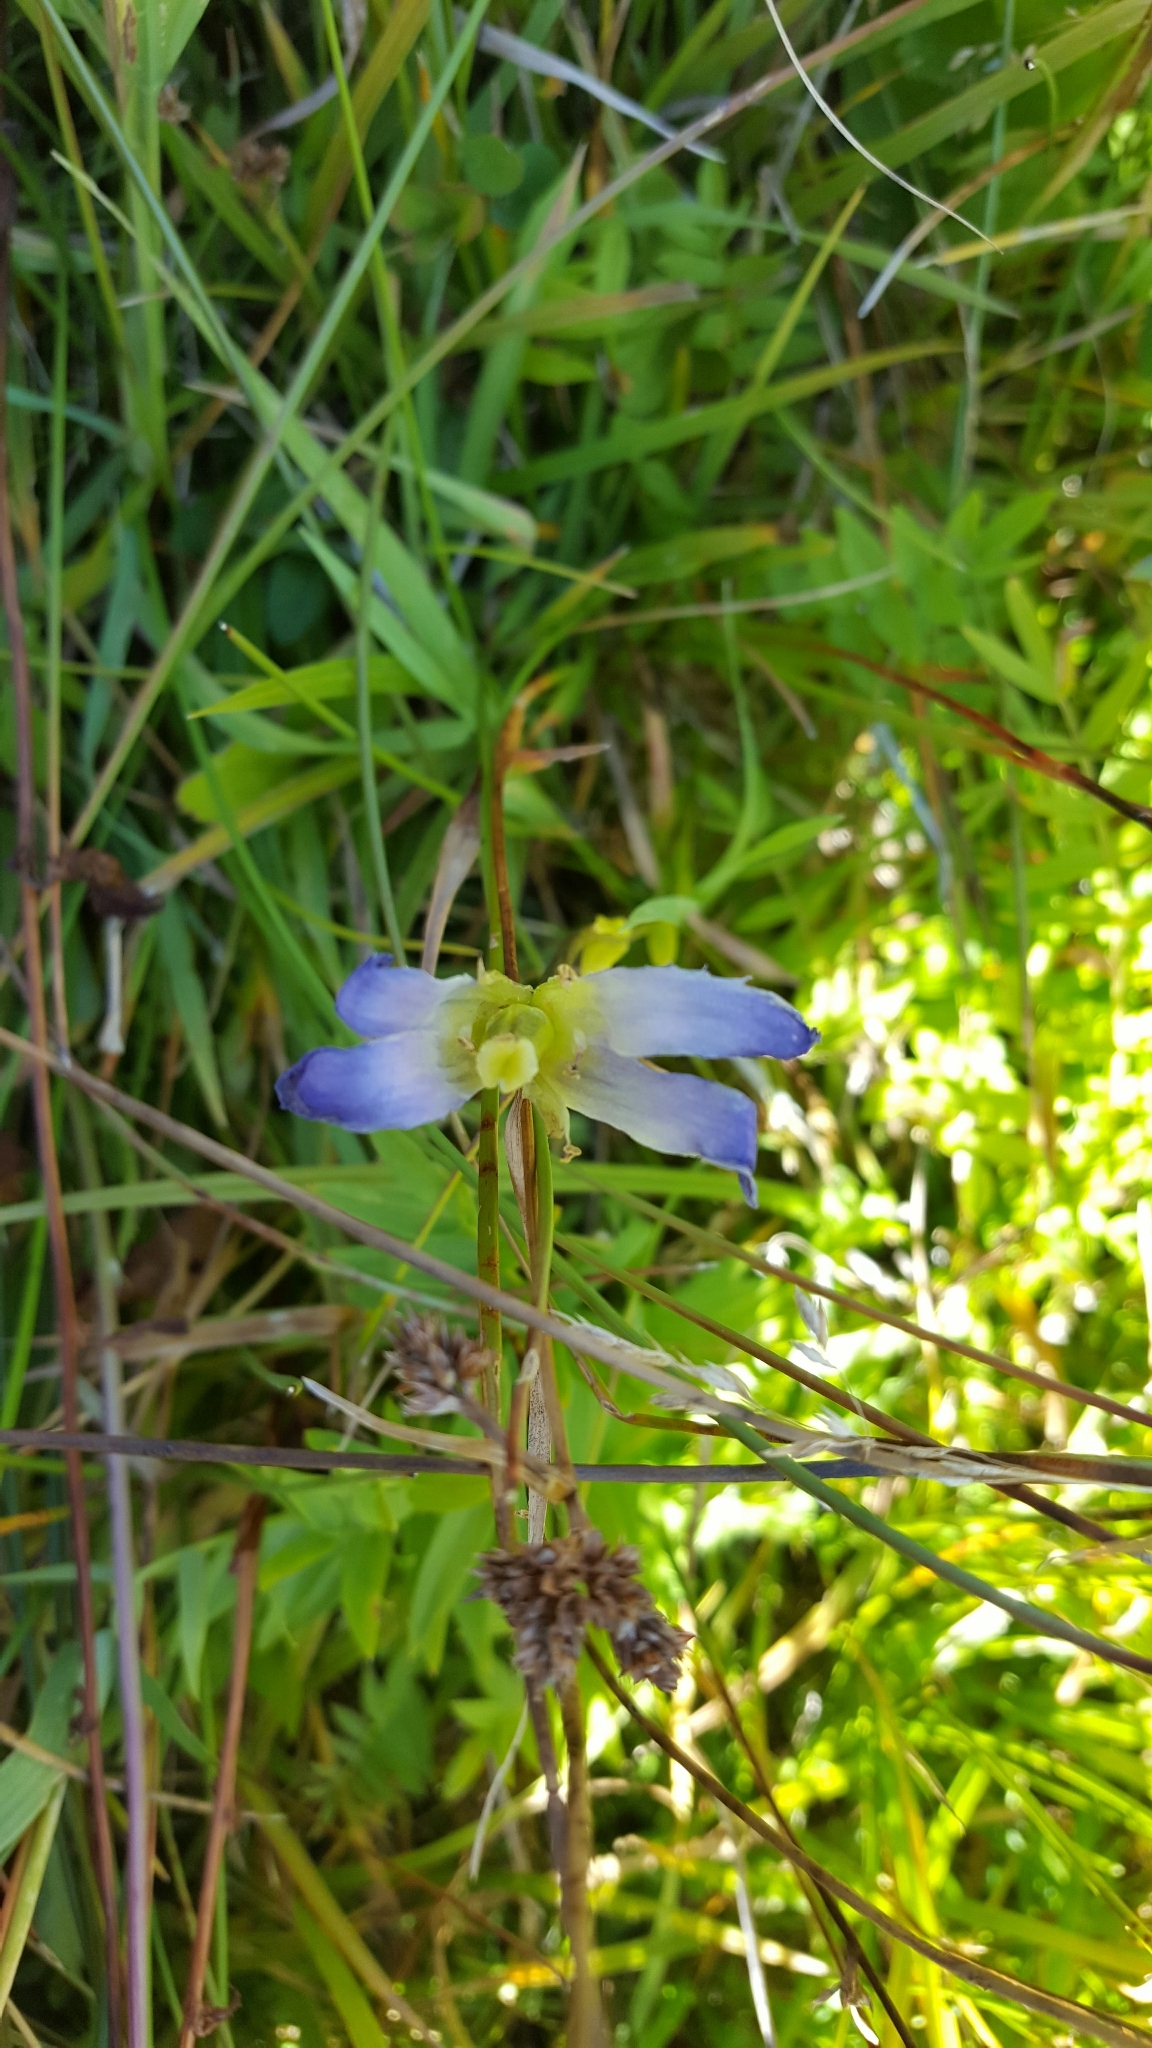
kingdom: Plantae
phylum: Tracheophyta
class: Magnoliopsida
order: Gentianales
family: Gentianaceae
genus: Gentianopsis
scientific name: Gentianopsis simplex
